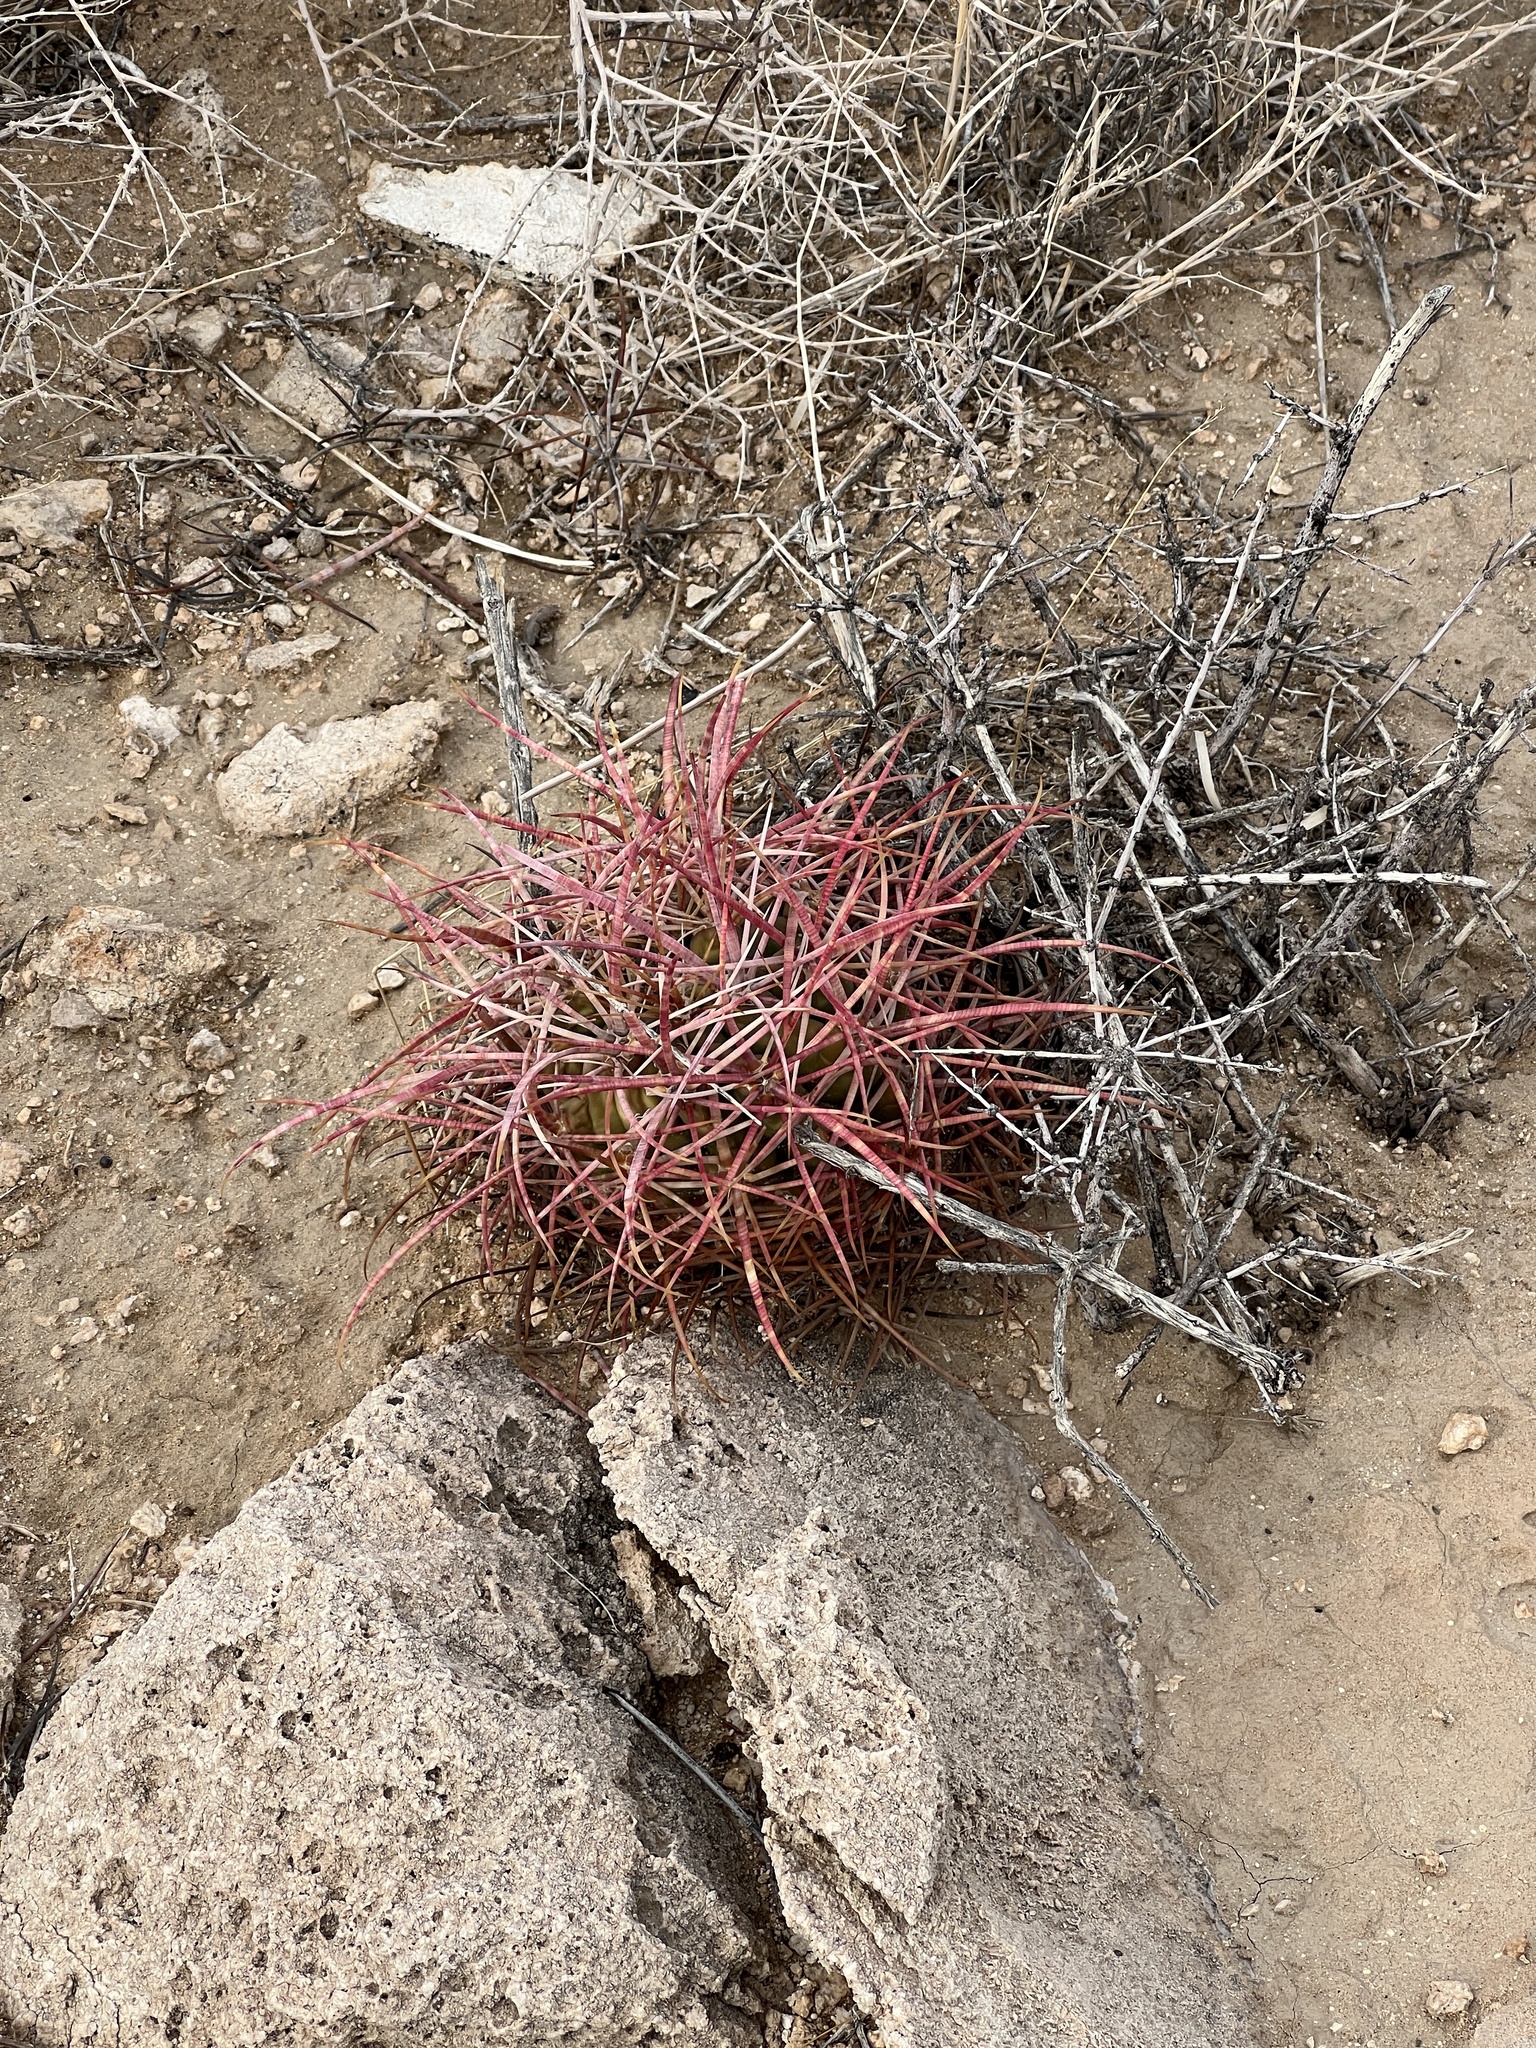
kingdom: Plantae
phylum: Tracheophyta
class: Magnoliopsida
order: Caryophyllales
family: Cactaceae
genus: Ferocactus
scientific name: Ferocactus cylindraceus
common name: California barrel cactus
